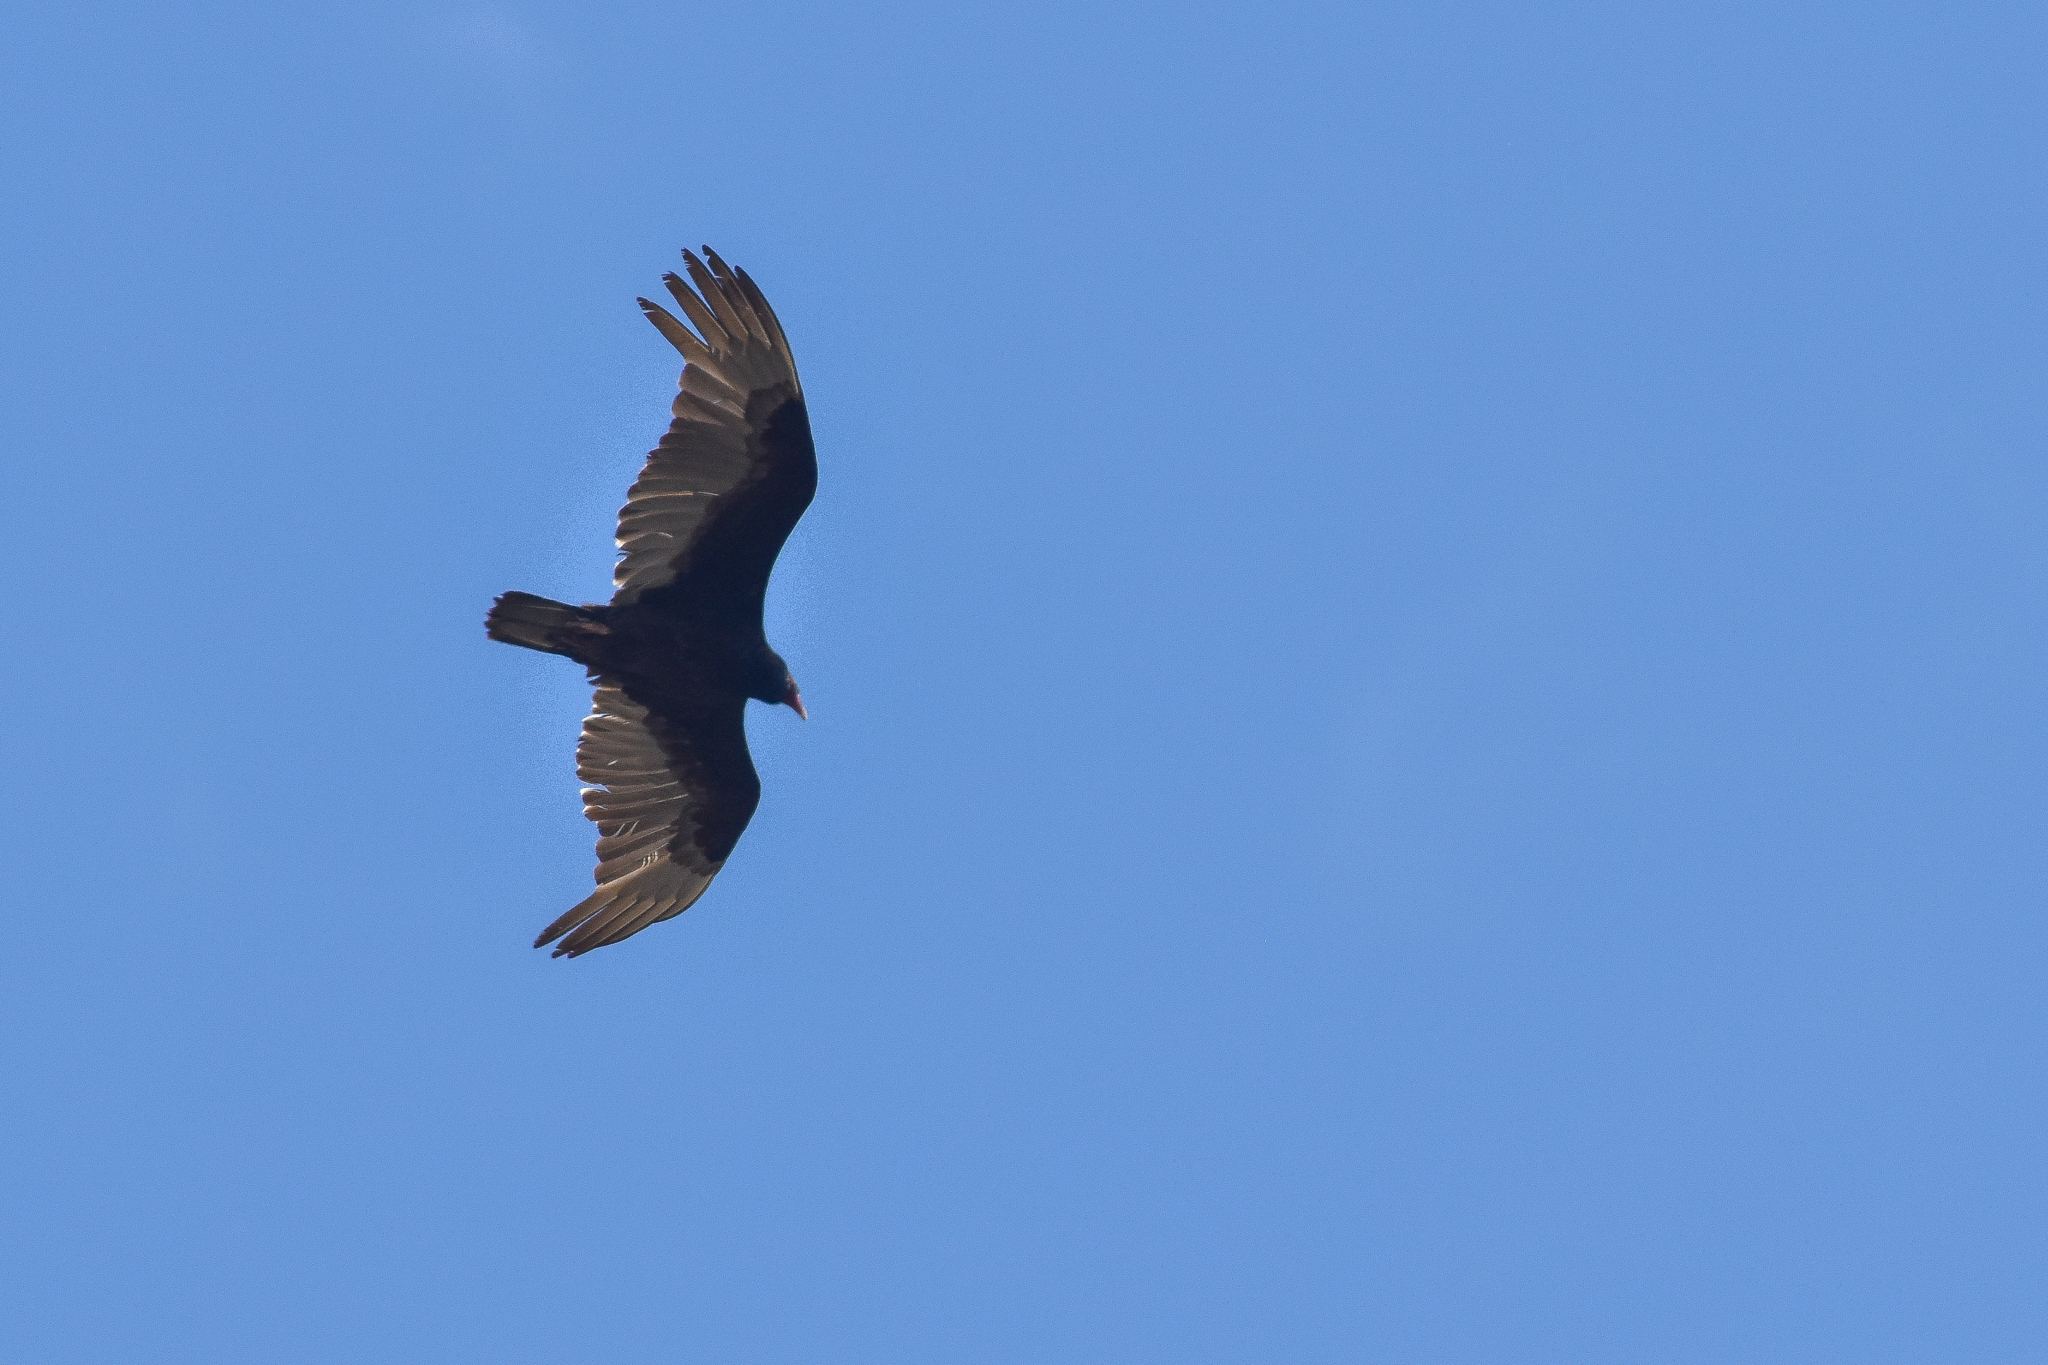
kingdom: Animalia
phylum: Chordata
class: Aves
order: Accipitriformes
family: Cathartidae
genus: Cathartes
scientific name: Cathartes aura
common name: Turkey vulture
